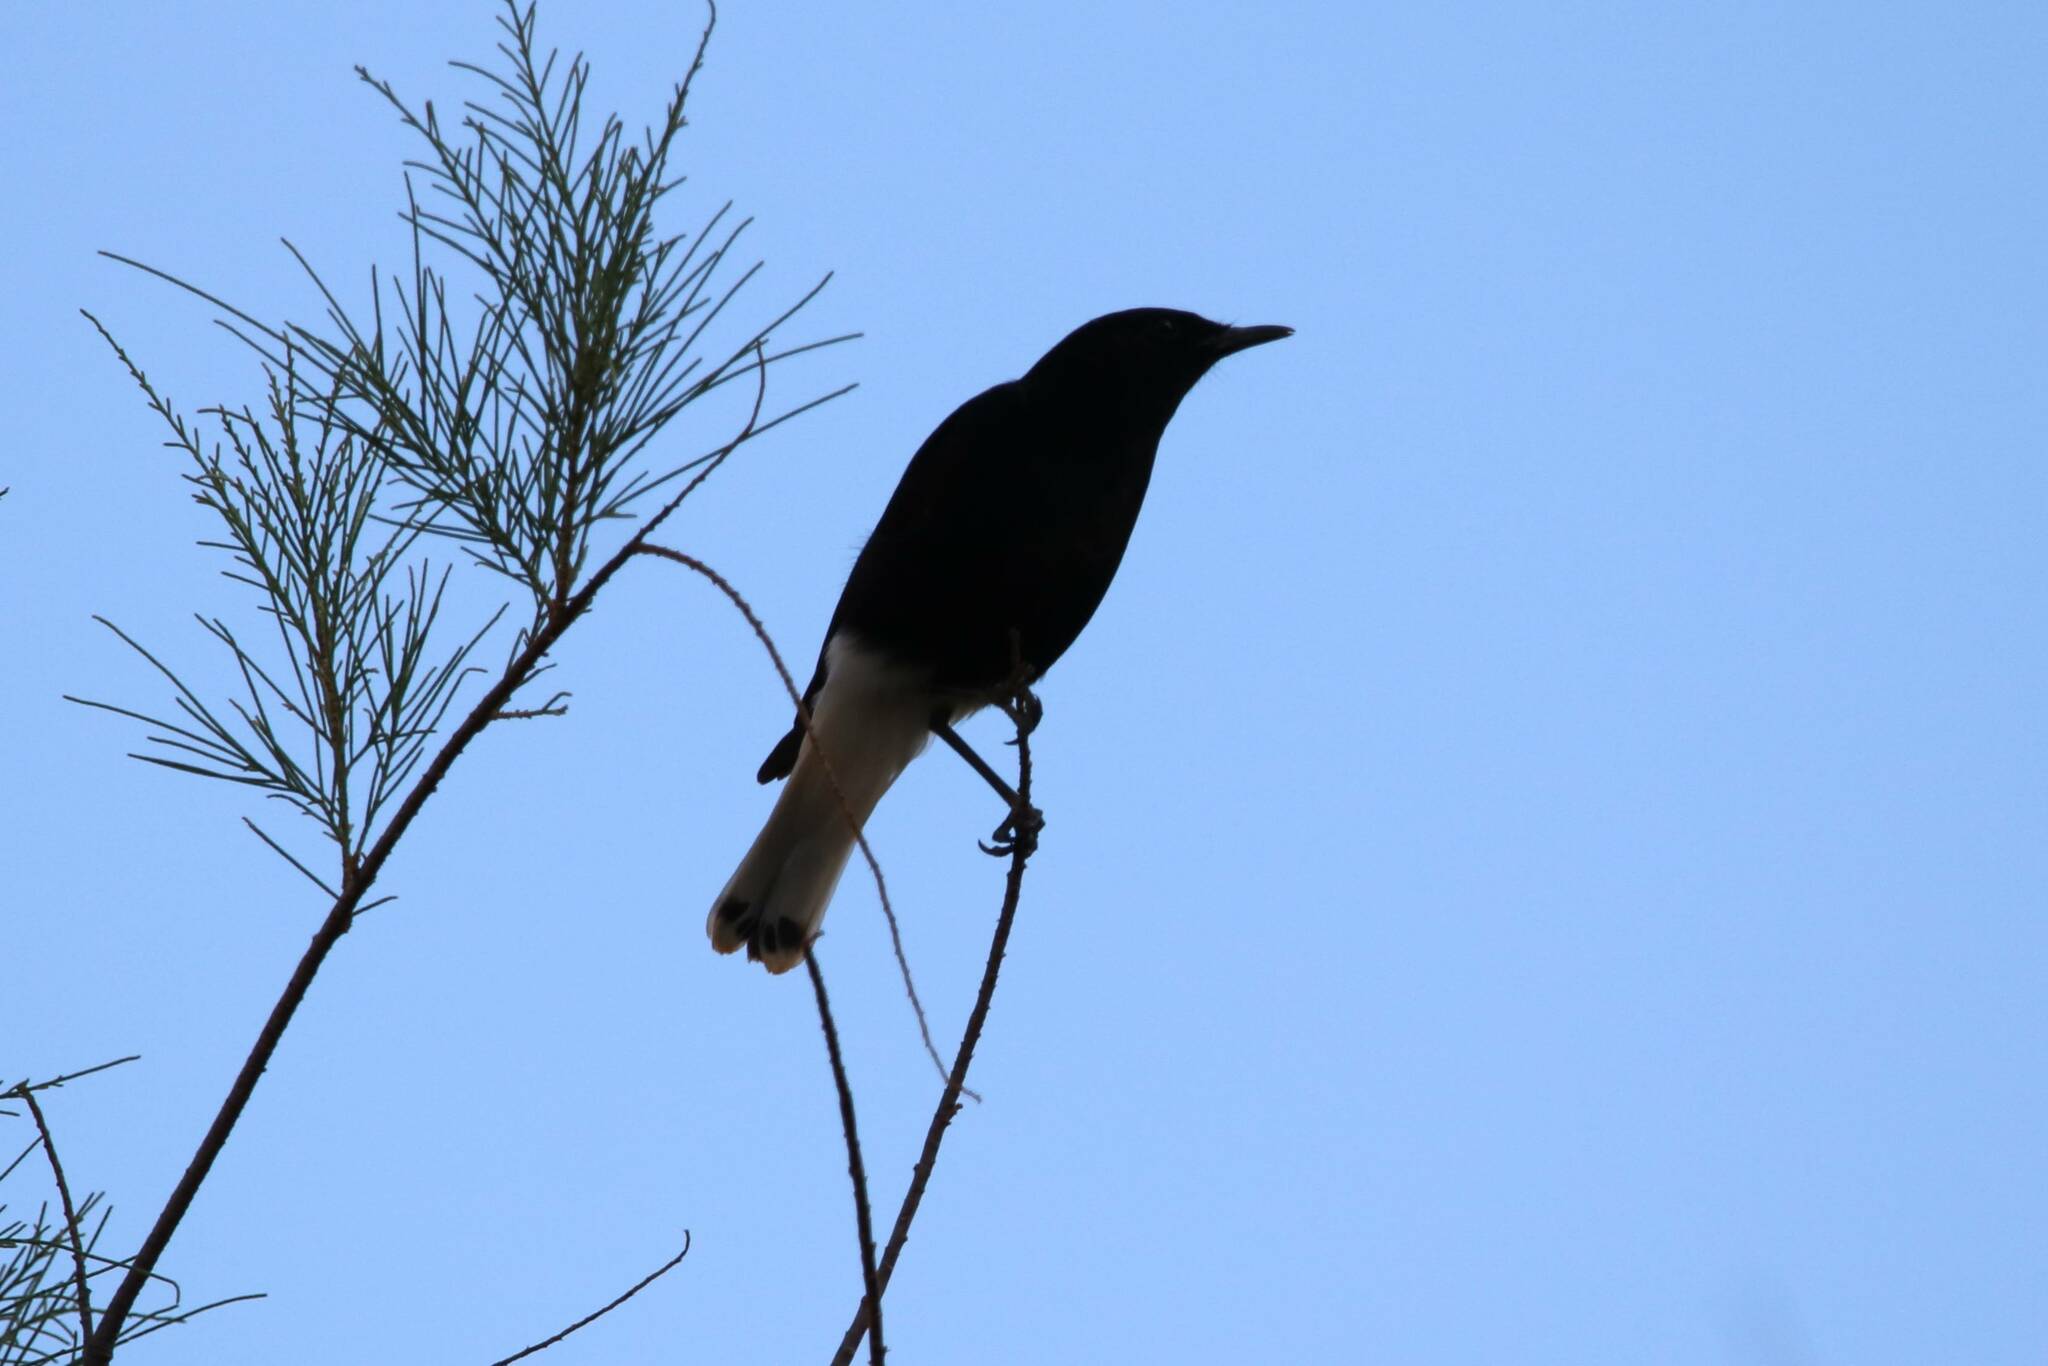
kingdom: Animalia
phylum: Chordata
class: Aves
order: Passeriformes
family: Muscicapidae
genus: Oenanthe
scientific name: Oenanthe leucopyga
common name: White-crowned wheatear
